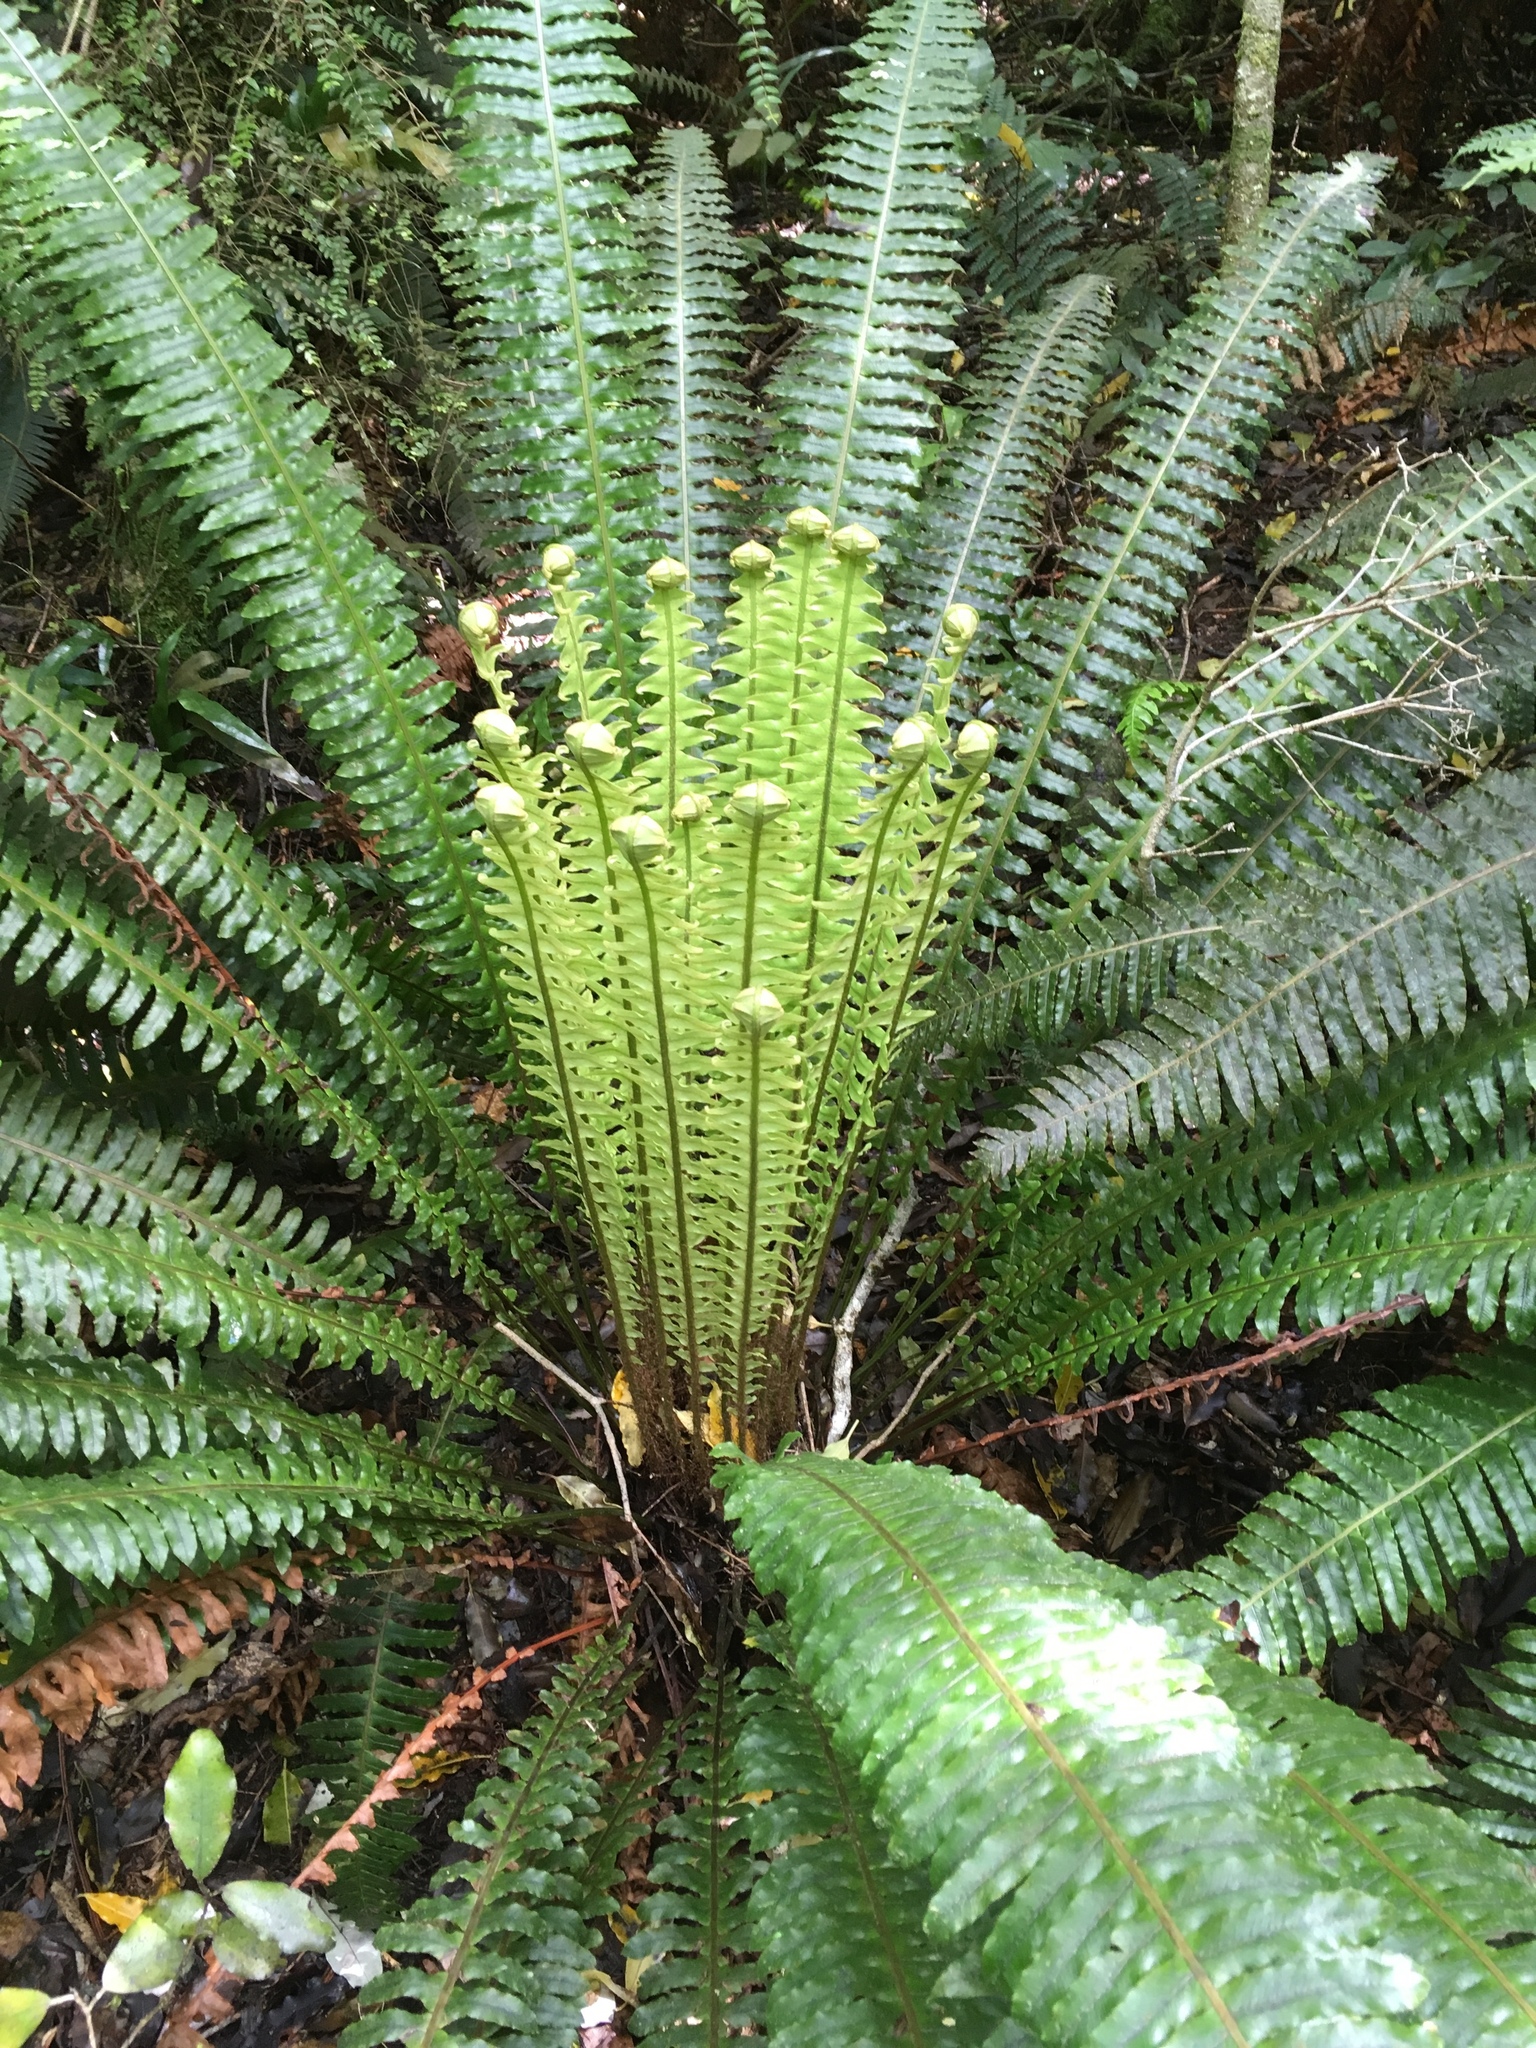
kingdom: Plantae
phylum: Tracheophyta
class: Polypodiopsida
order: Polypodiales
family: Blechnaceae
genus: Lomaria
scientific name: Lomaria discolor
